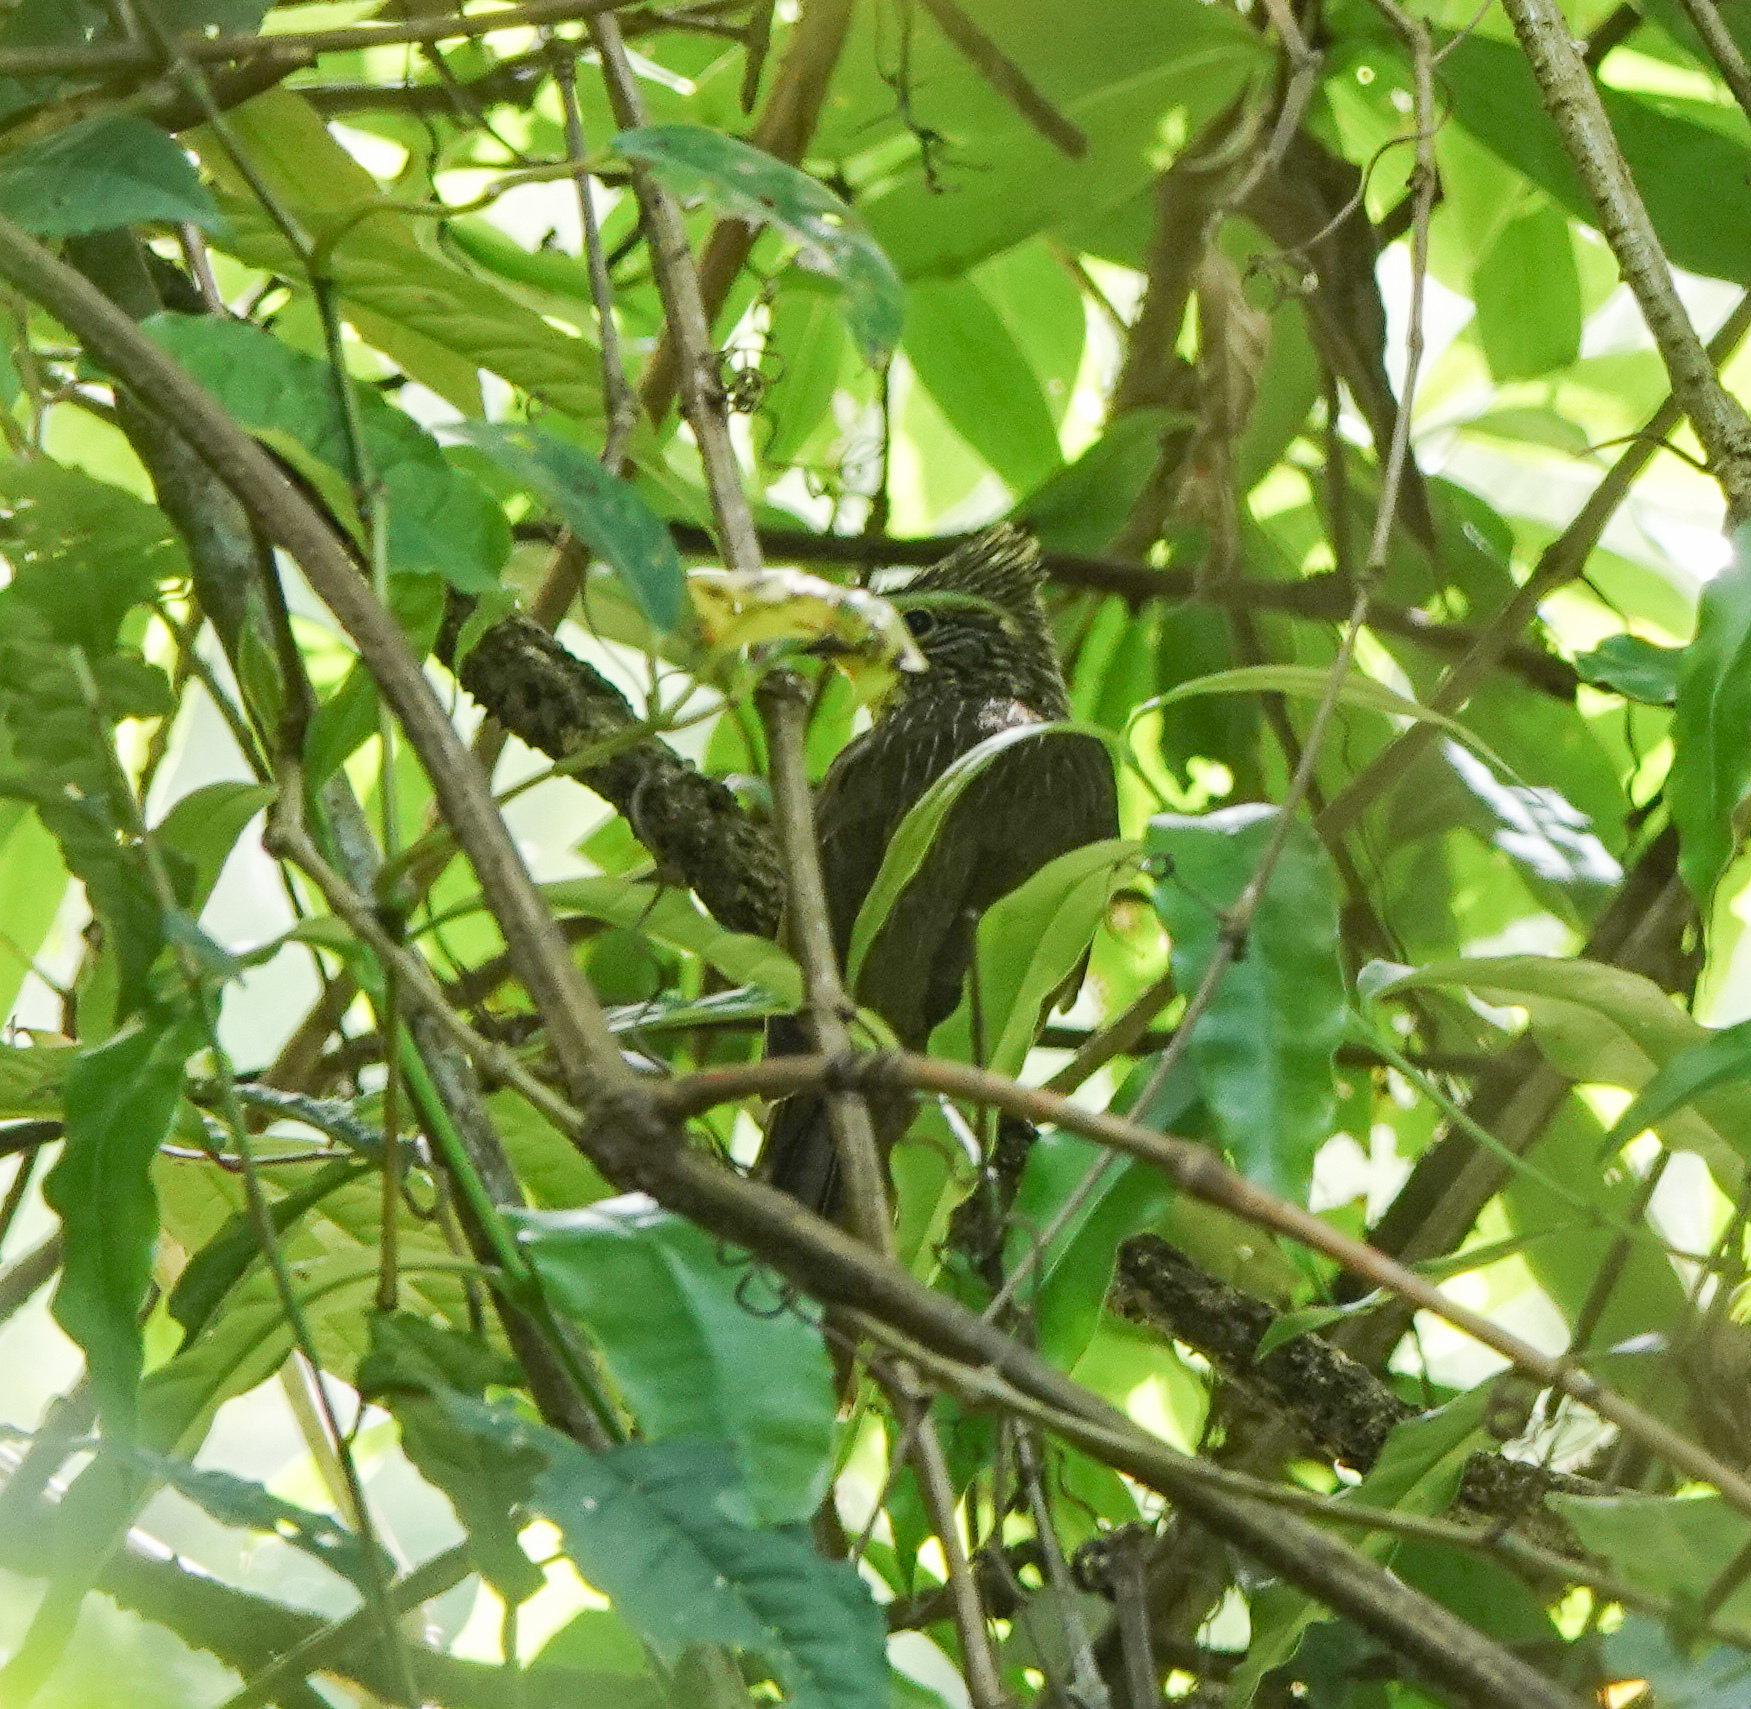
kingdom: Animalia
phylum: Chordata
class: Aves
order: Passeriformes
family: Pycnonotidae
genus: Pycnonotus
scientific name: Pycnonotus striatus
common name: Striated bulbul
